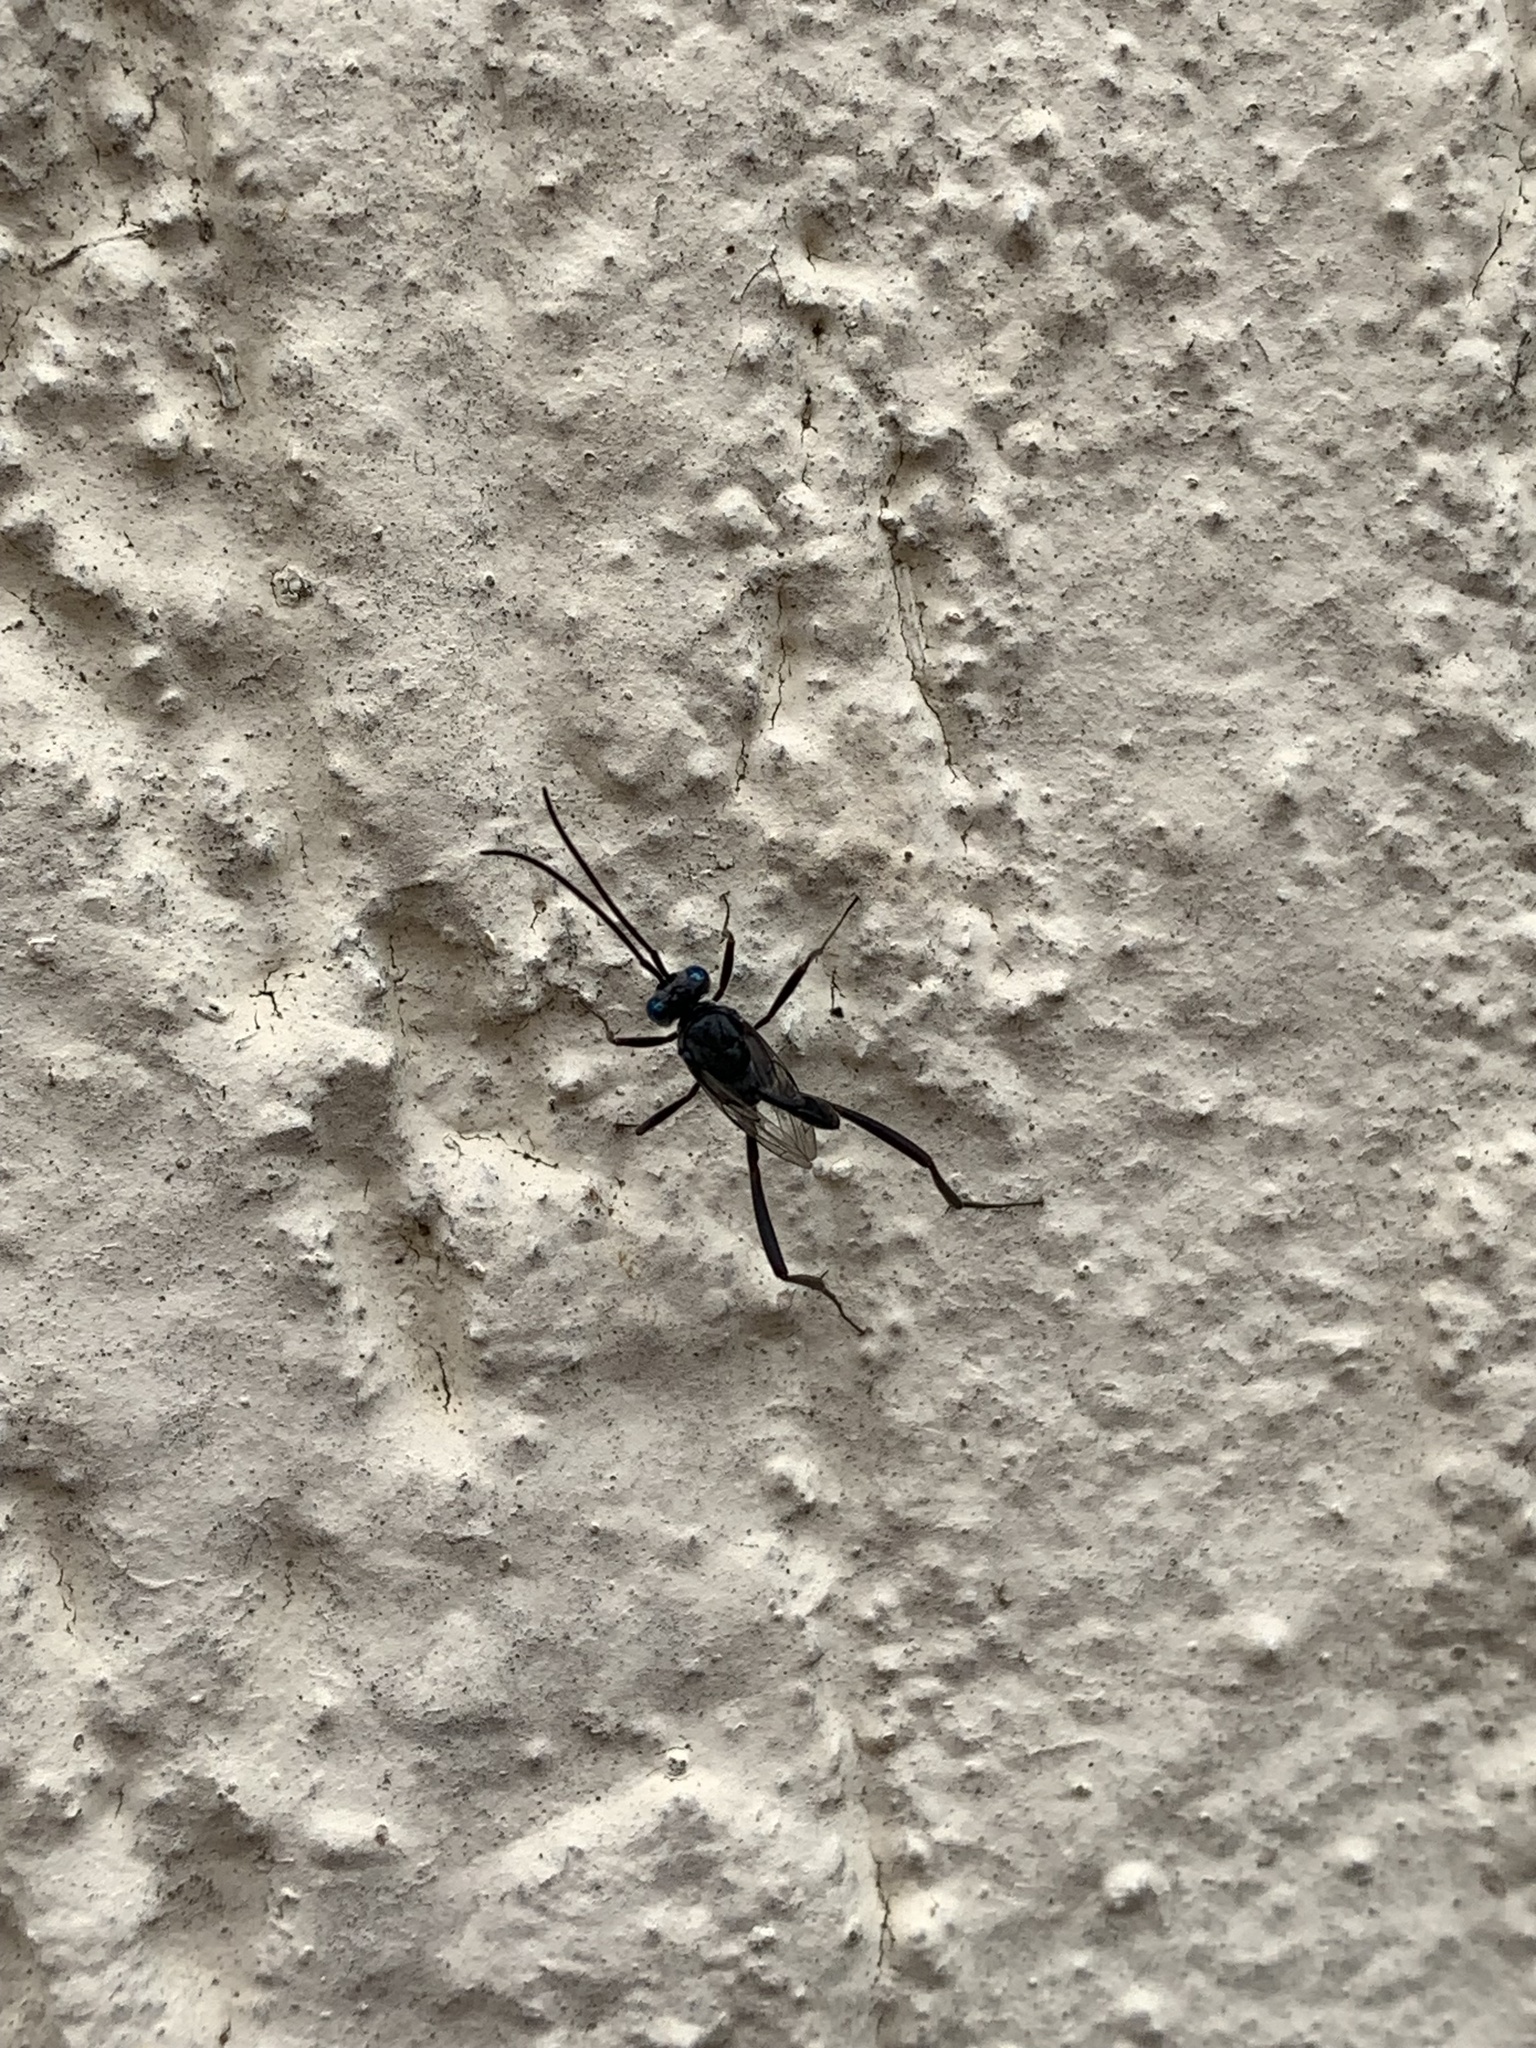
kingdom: Animalia
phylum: Arthropoda
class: Insecta
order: Hymenoptera
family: Evaniidae
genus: Evania
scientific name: Evania appendigaster
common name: Ensign wasp
